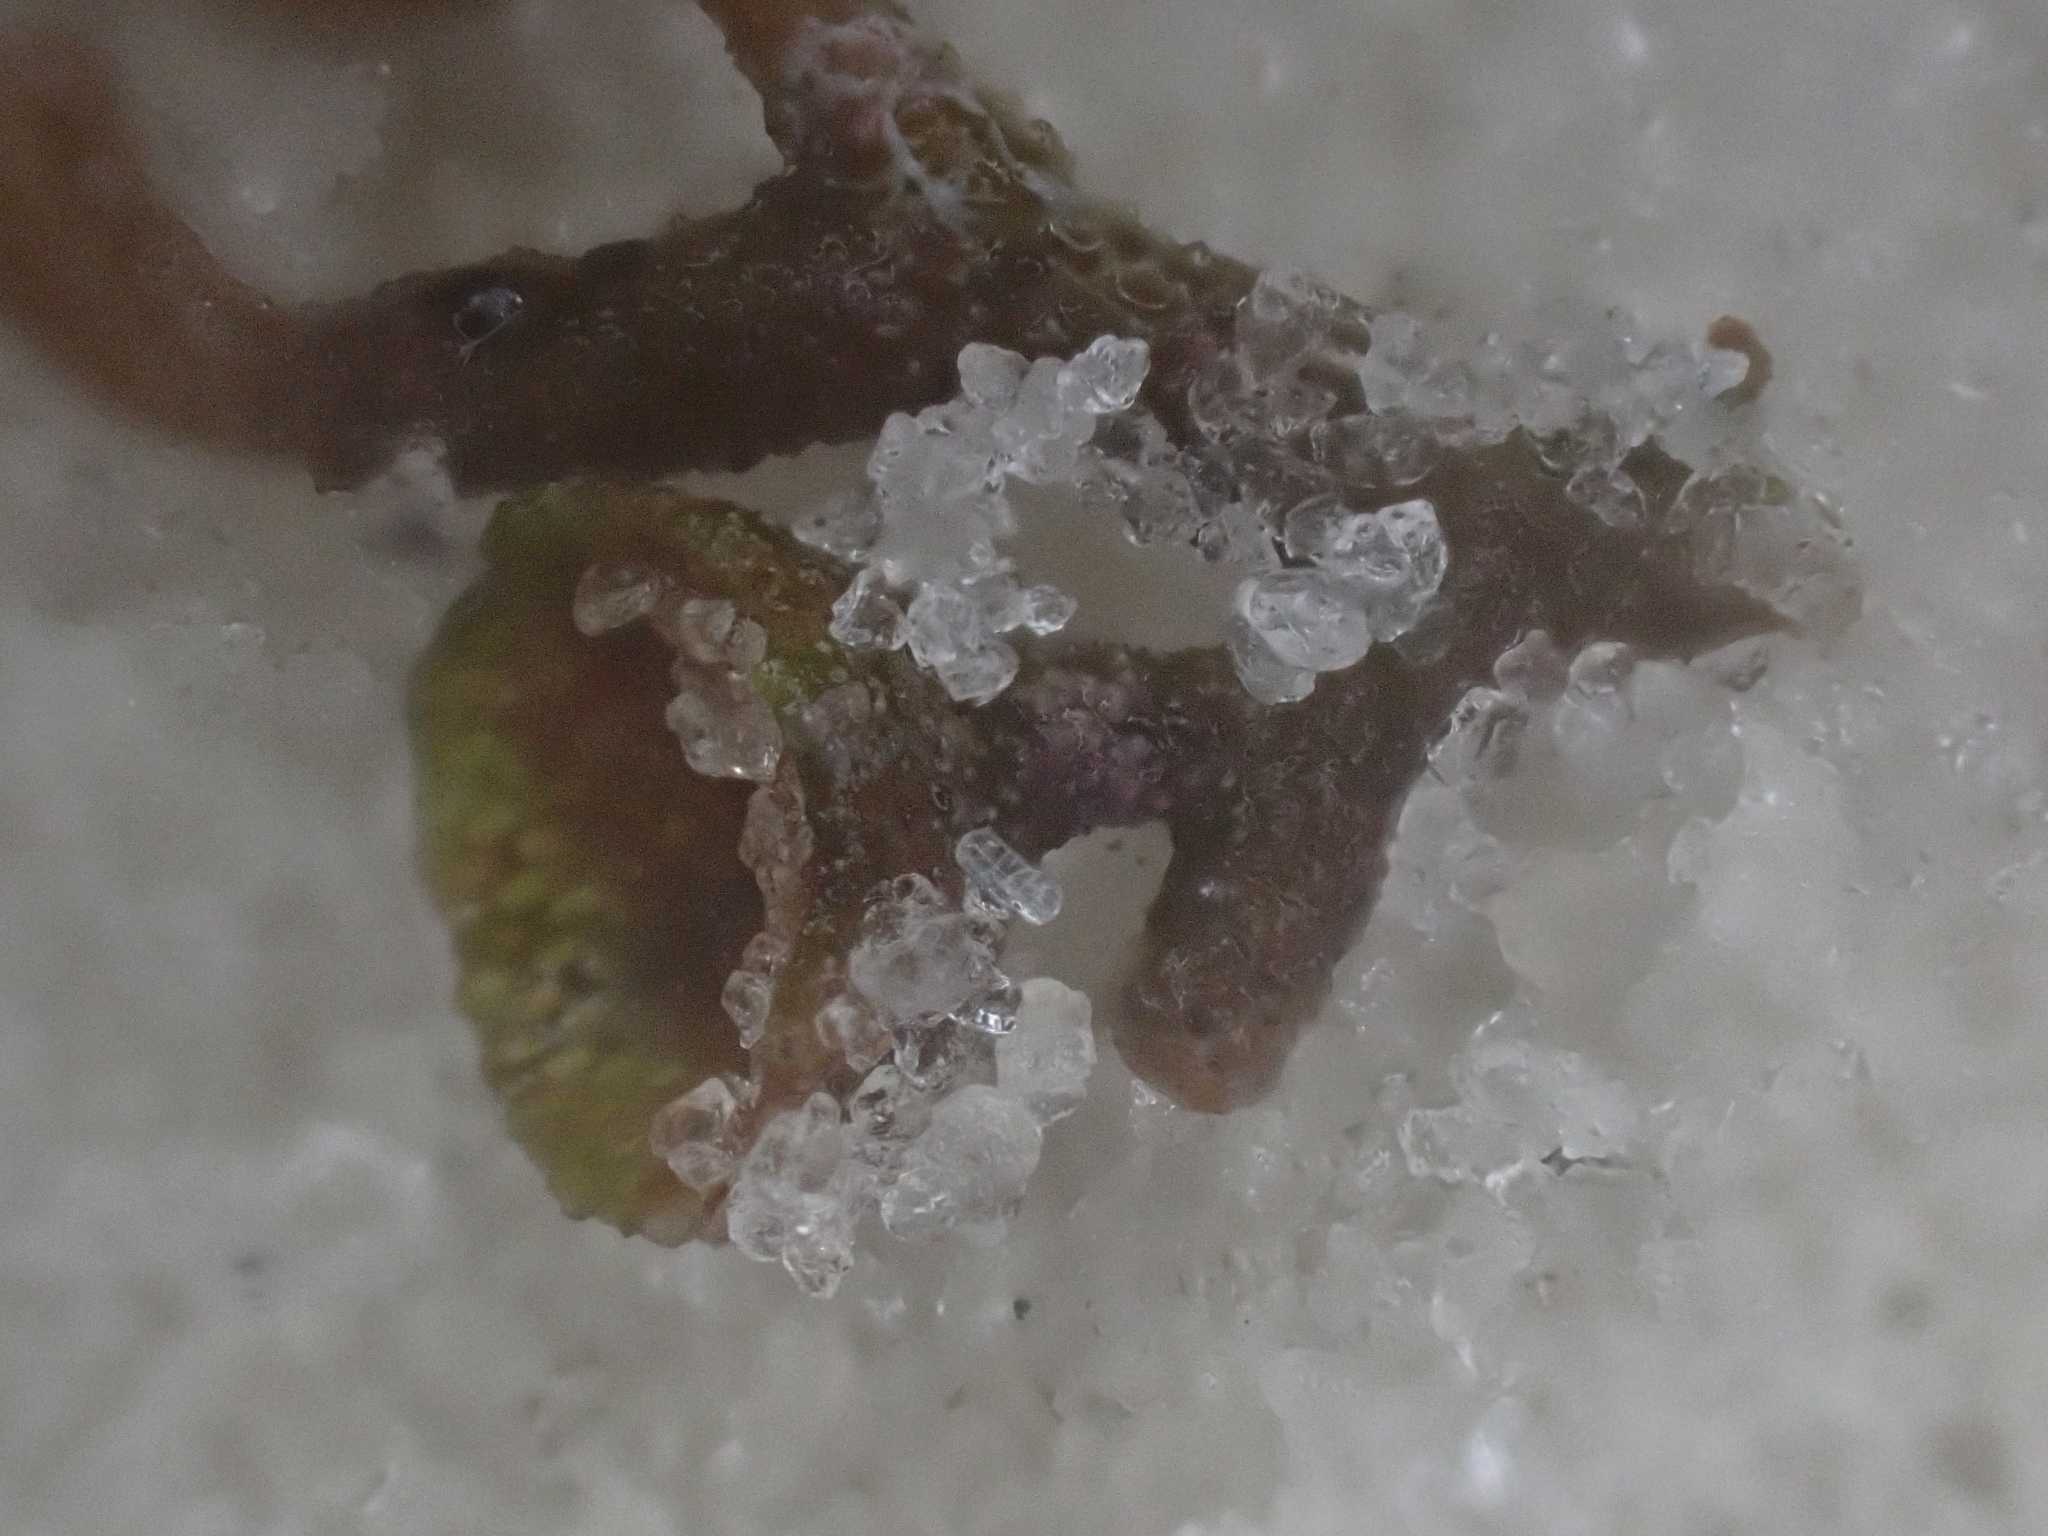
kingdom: Chromista
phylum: Ochrophyta
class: Phaeophyceae
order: Fucales
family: Sargassaceae
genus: Sargassum
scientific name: Sargassum fluitans
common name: Sargassum seaweed
